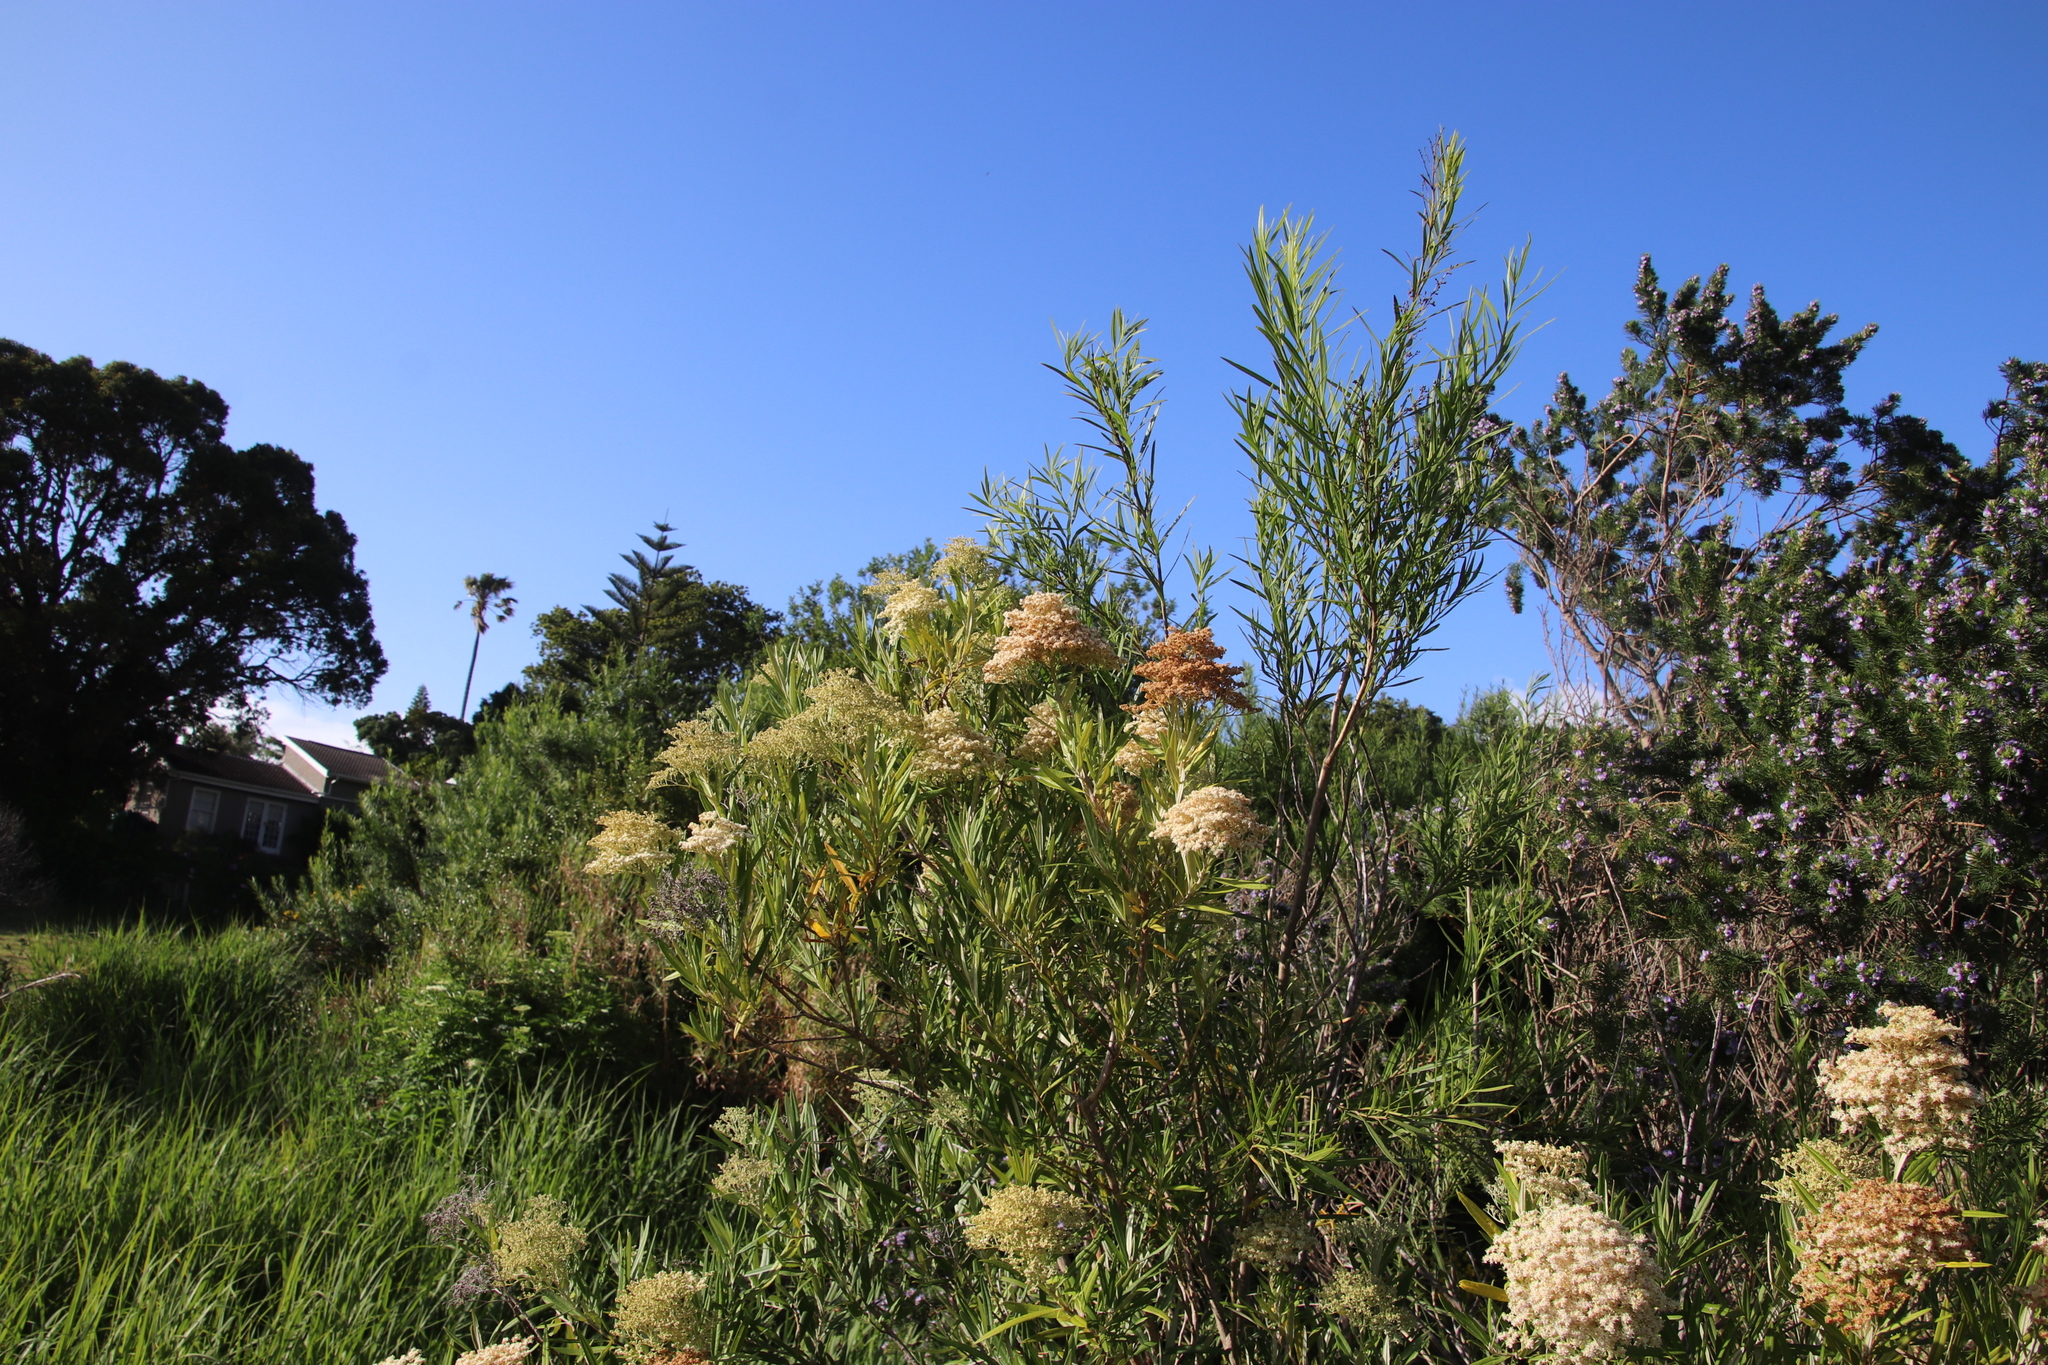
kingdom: Plantae
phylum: Tracheophyta
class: Magnoliopsida
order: Lamiales
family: Scrophulariaceae
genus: Buddleja
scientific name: Buddleja saligna
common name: False olive
